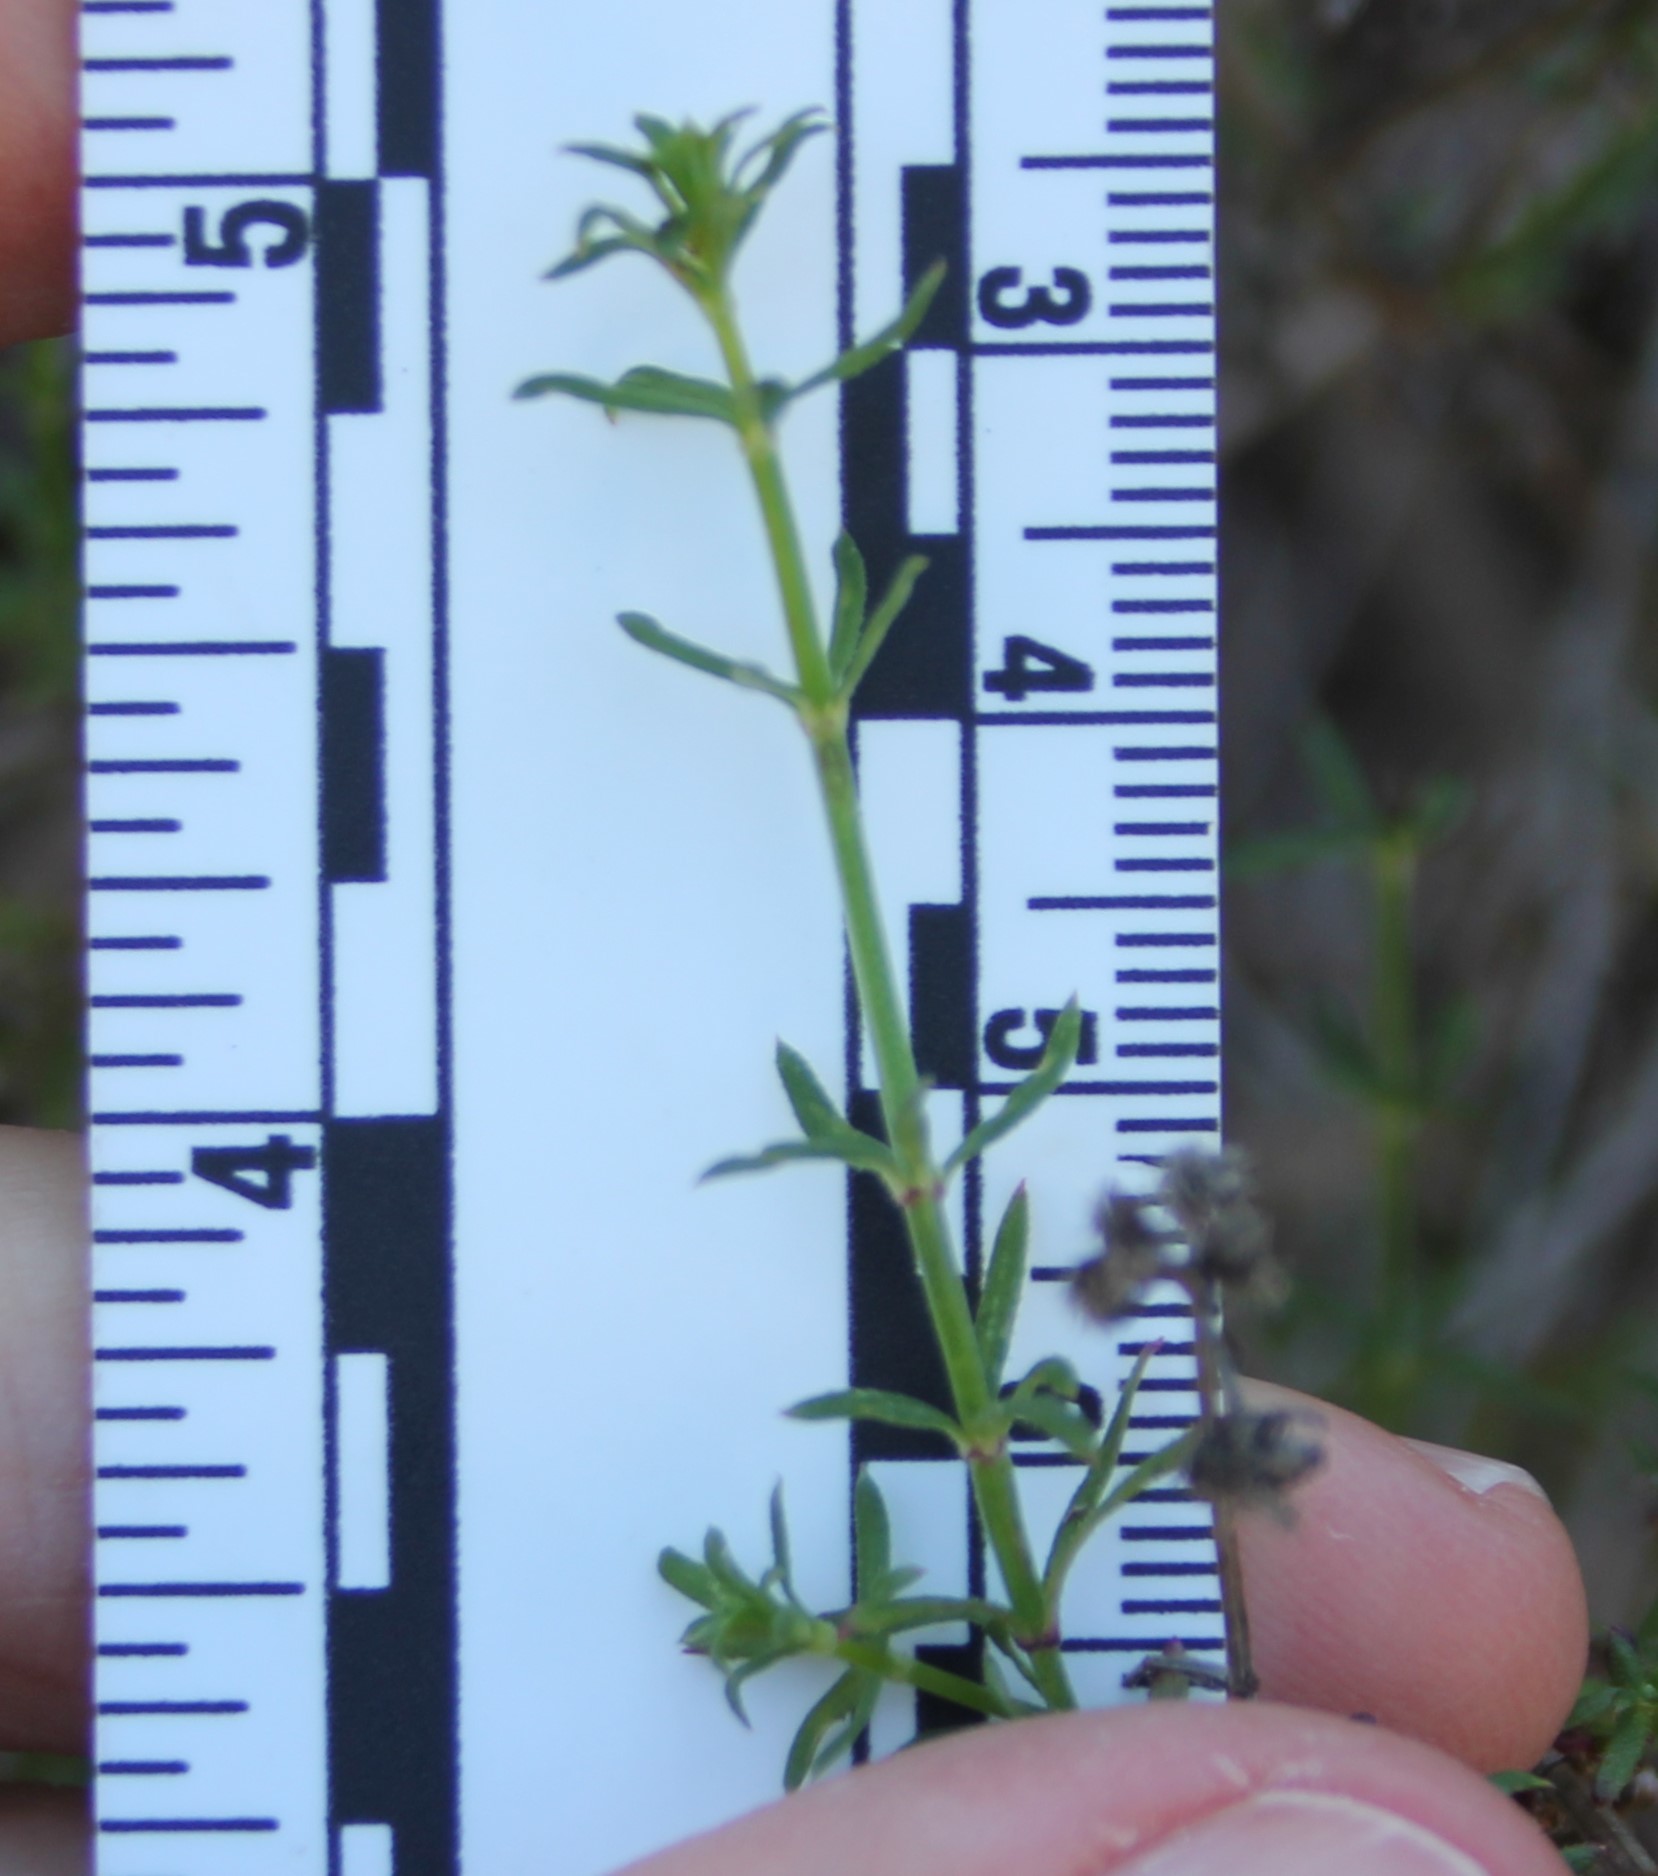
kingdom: Plantae
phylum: Tracheophyta
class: Magnoliopsida
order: Gentianales
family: Rubiaceae
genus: Galium
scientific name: Galium angustifolium
